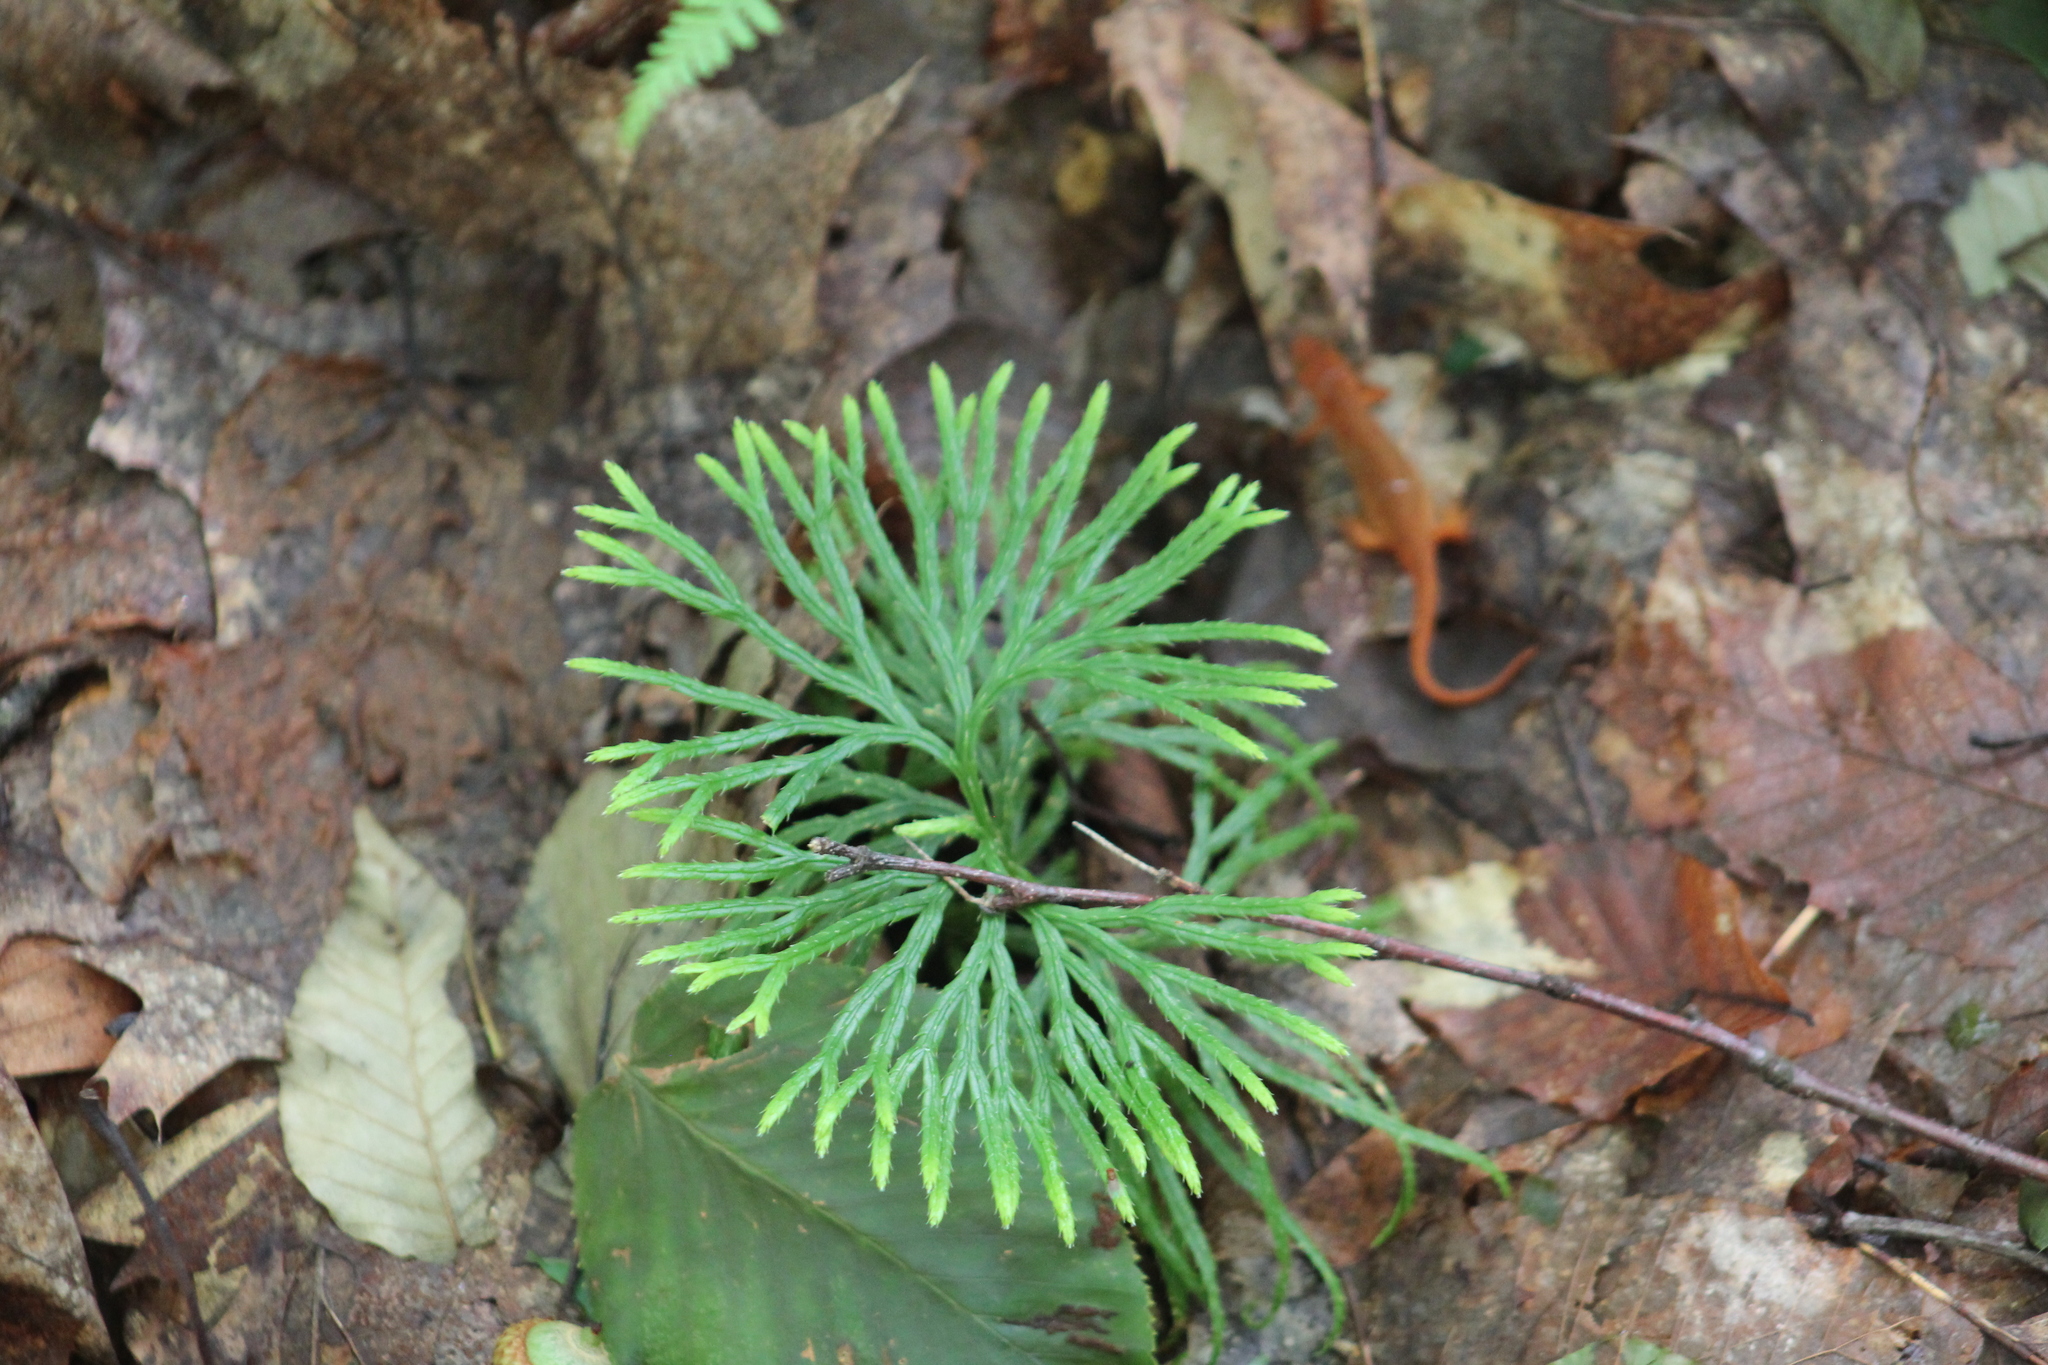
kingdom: Plantae
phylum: Tracheophyta
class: Lycopodiopsida
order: Lycopodiales
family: Lycopodiaceae
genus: Diphasiastrum
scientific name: Diphasiastrum digitatum
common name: Southern running-pine
